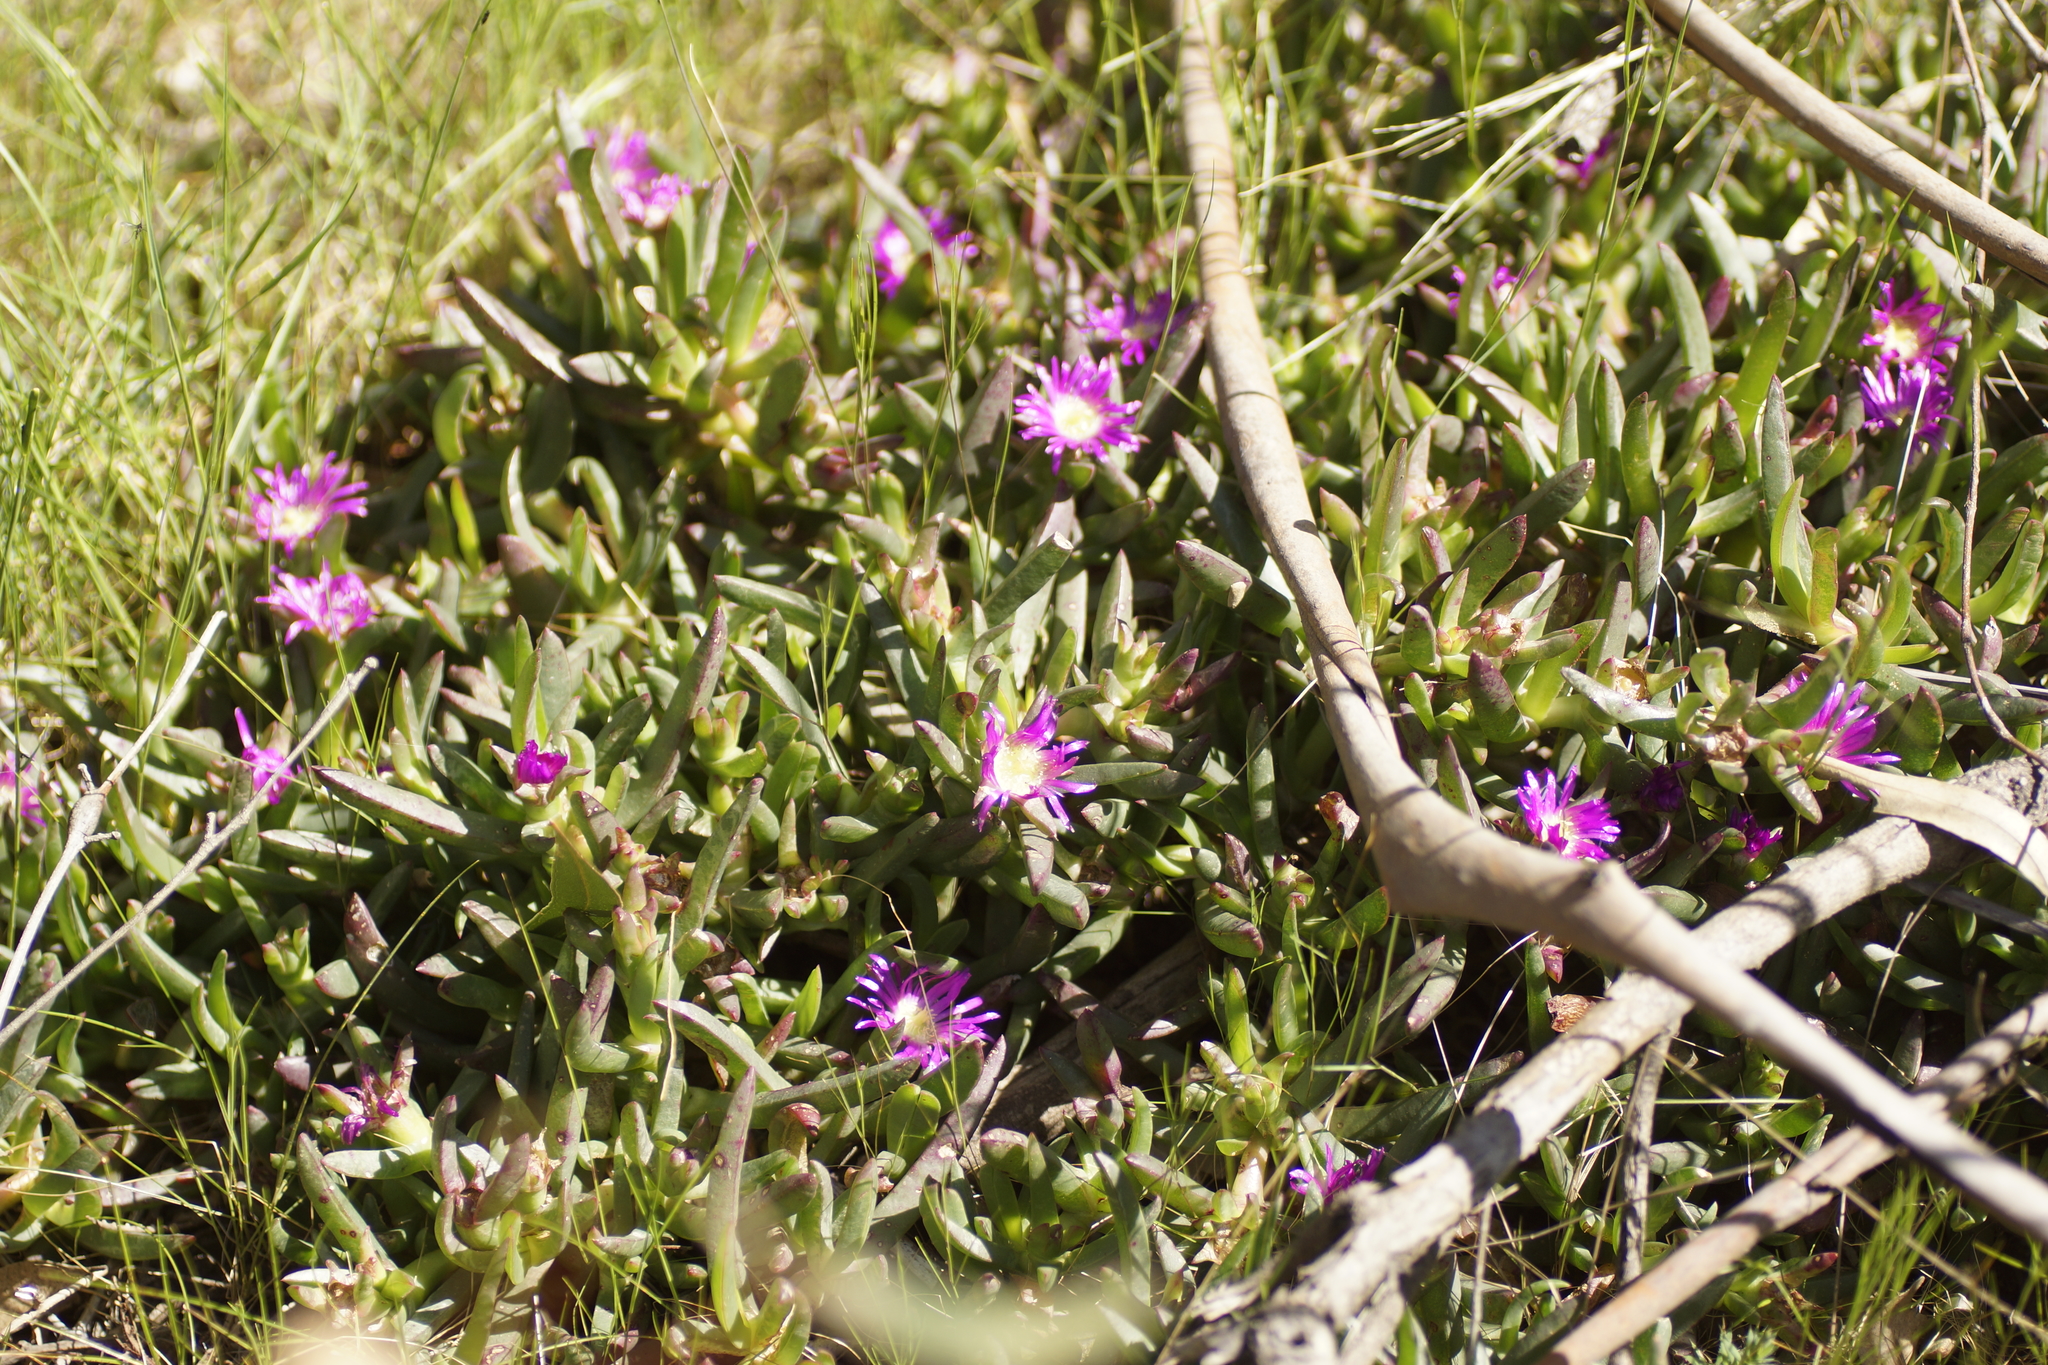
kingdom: Plantae
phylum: Tracheophyta
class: Magnoliopsida
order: Caryophyllales
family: Aizoaceae
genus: Carpobrotus
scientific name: Carpobrotus modestus
